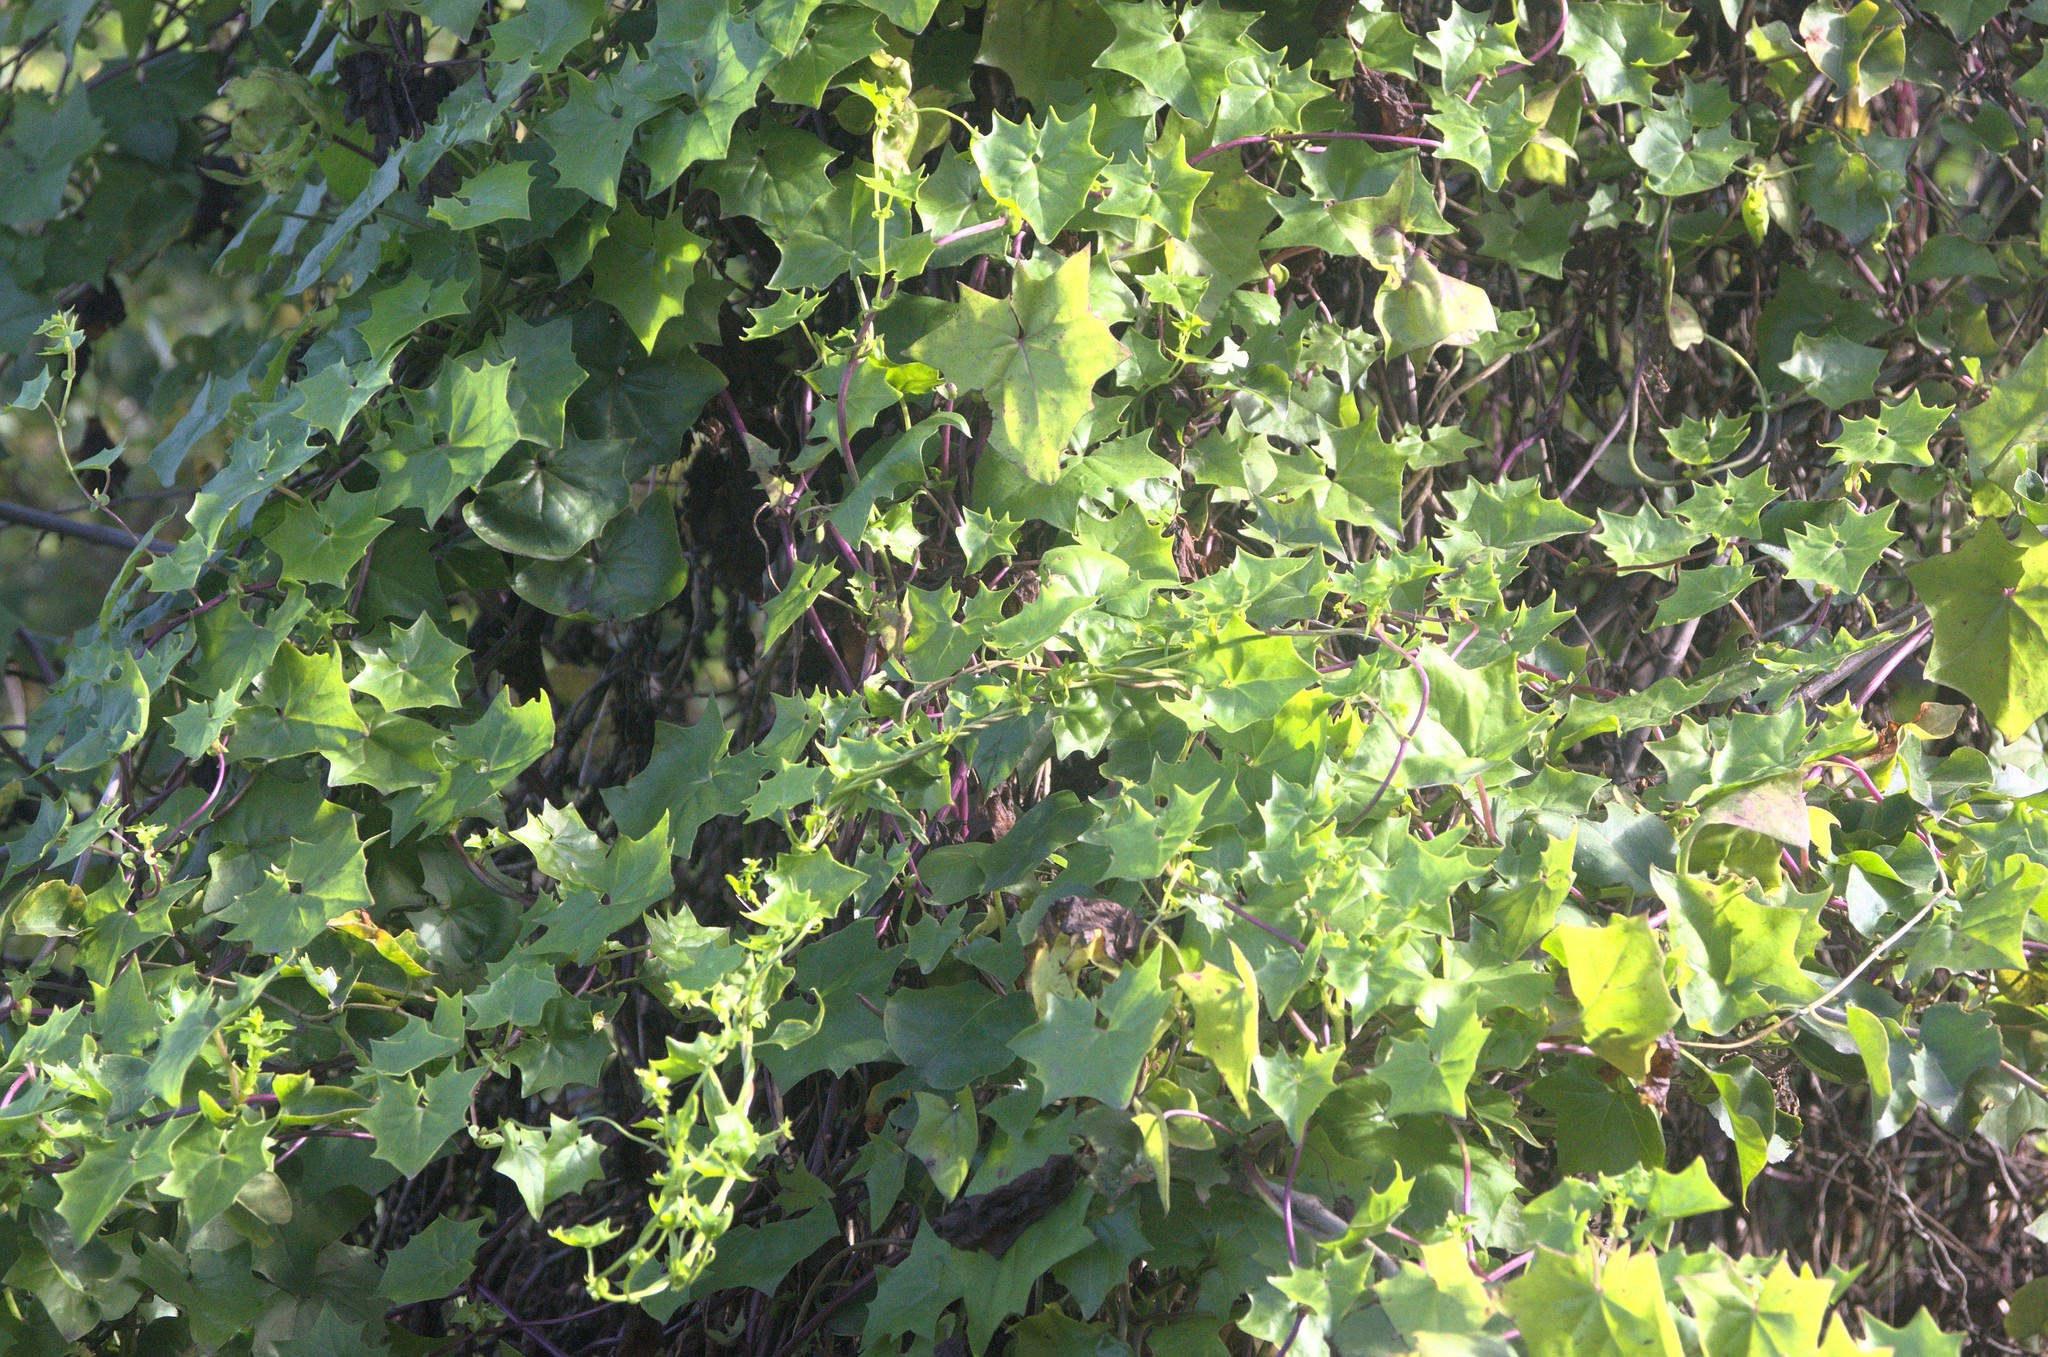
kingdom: Plantae
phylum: Tracheophyta
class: Magnoliopsida
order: Asterales
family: Asteraceae
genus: Delairea
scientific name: Delairea odorata
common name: Cape-ivy
